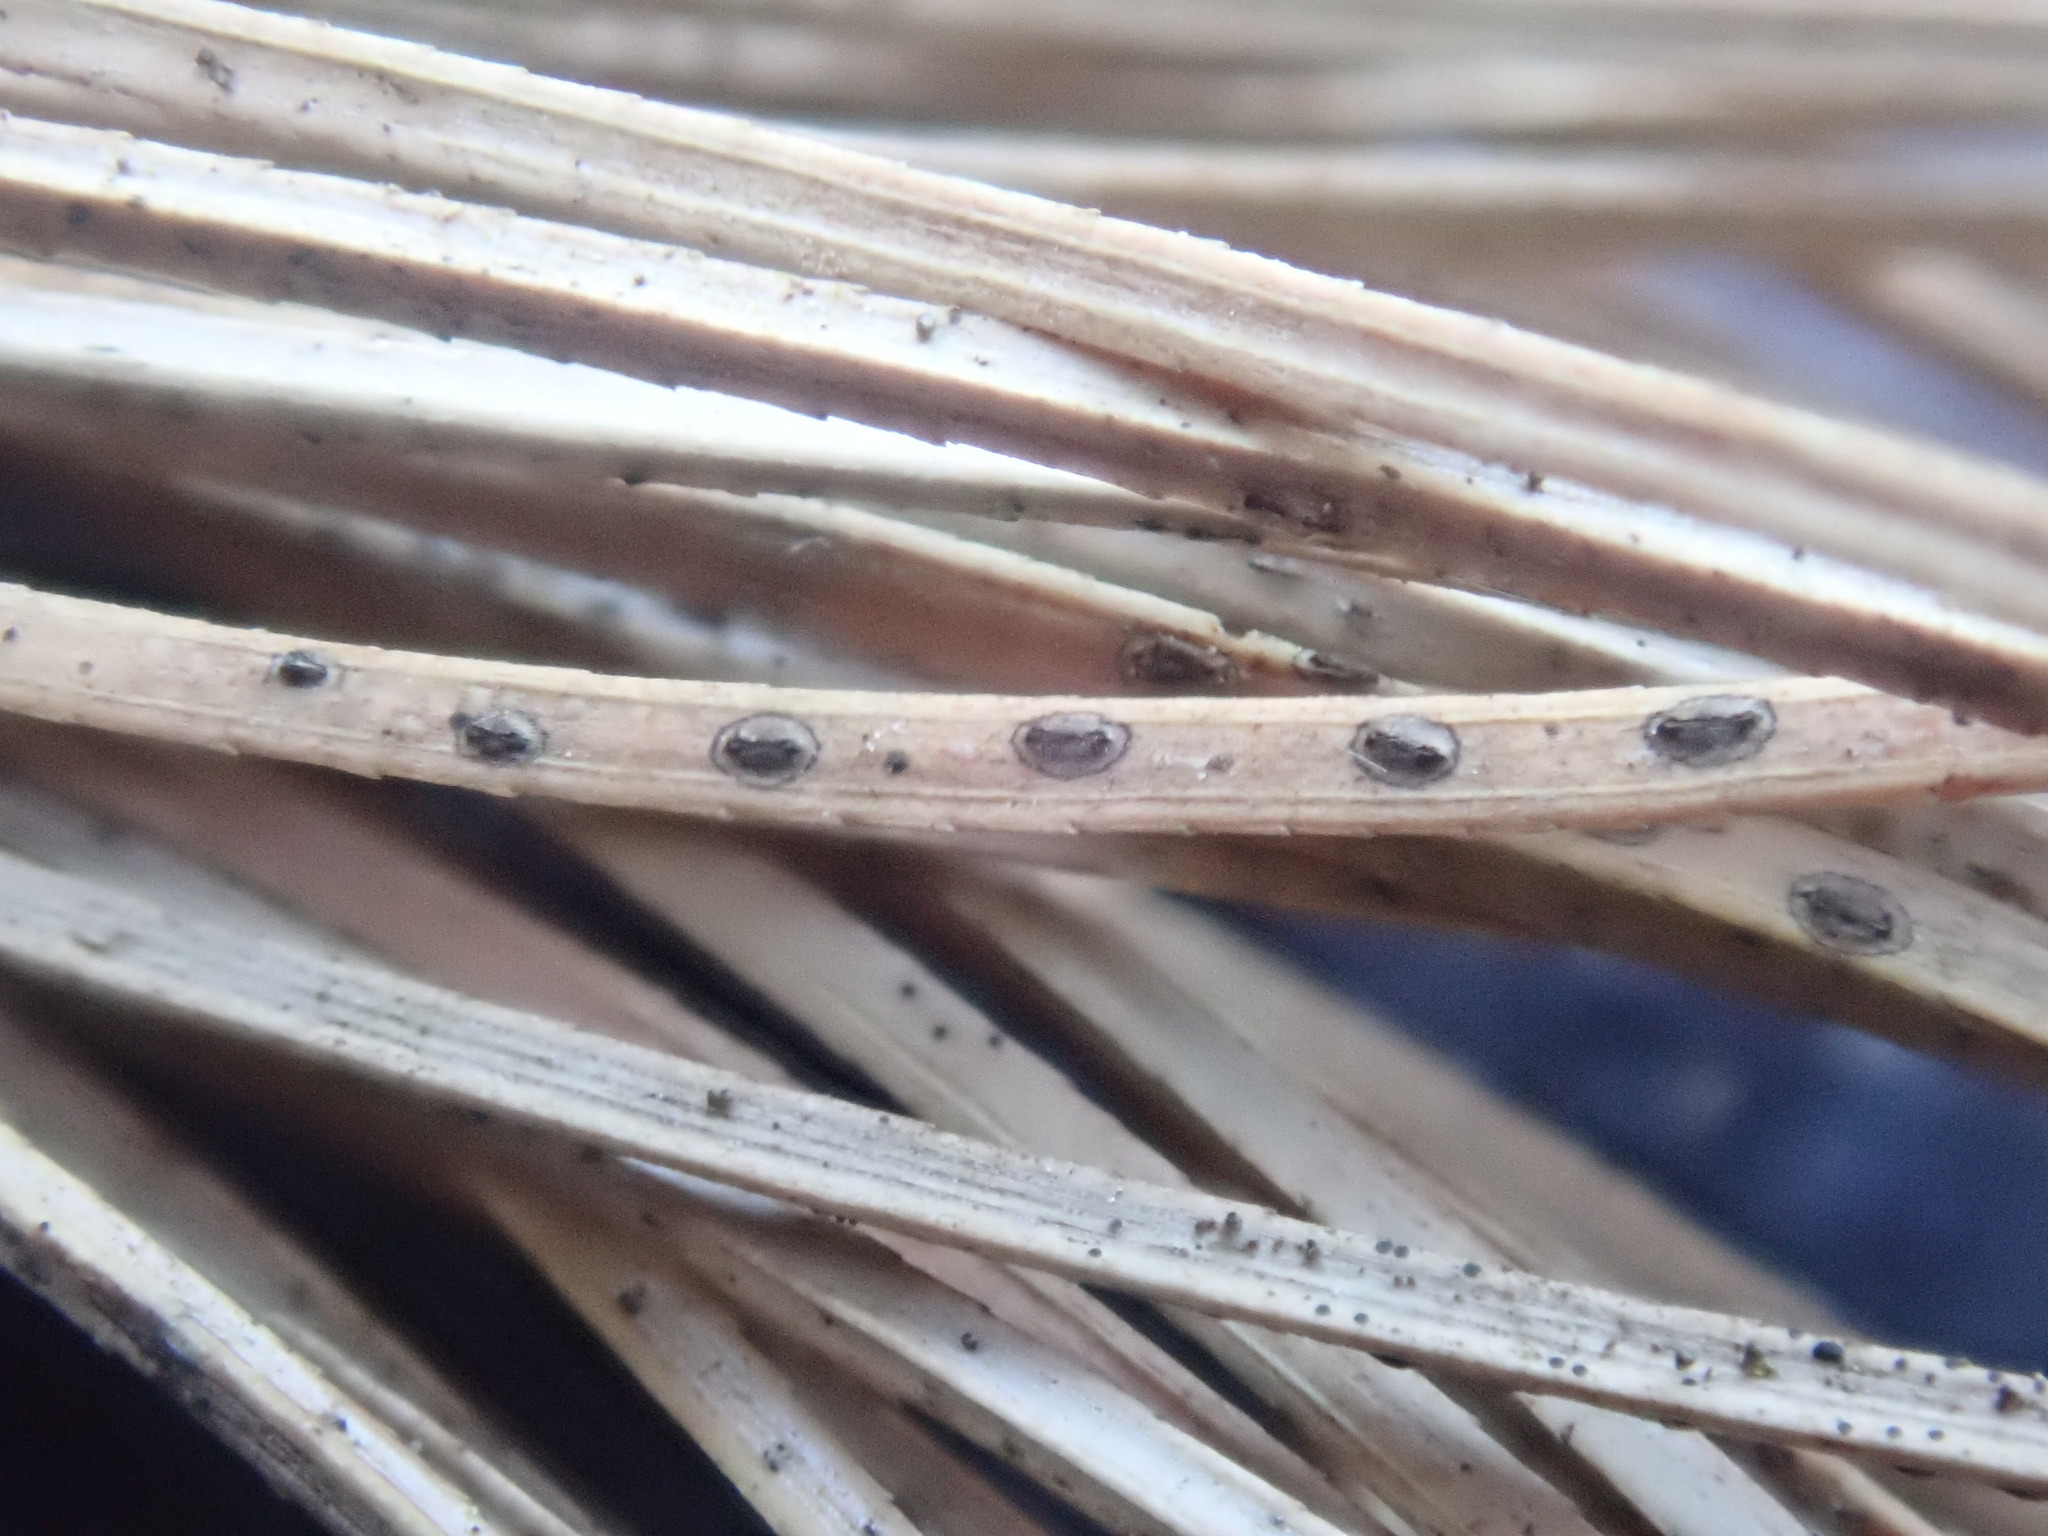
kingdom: Fungi
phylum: Ascomycota
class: Leotiomycetes
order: Rhytismatales
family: Rhytismataceae
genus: Lophodermium
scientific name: Lophodermium pinastri
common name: Pine needle split
